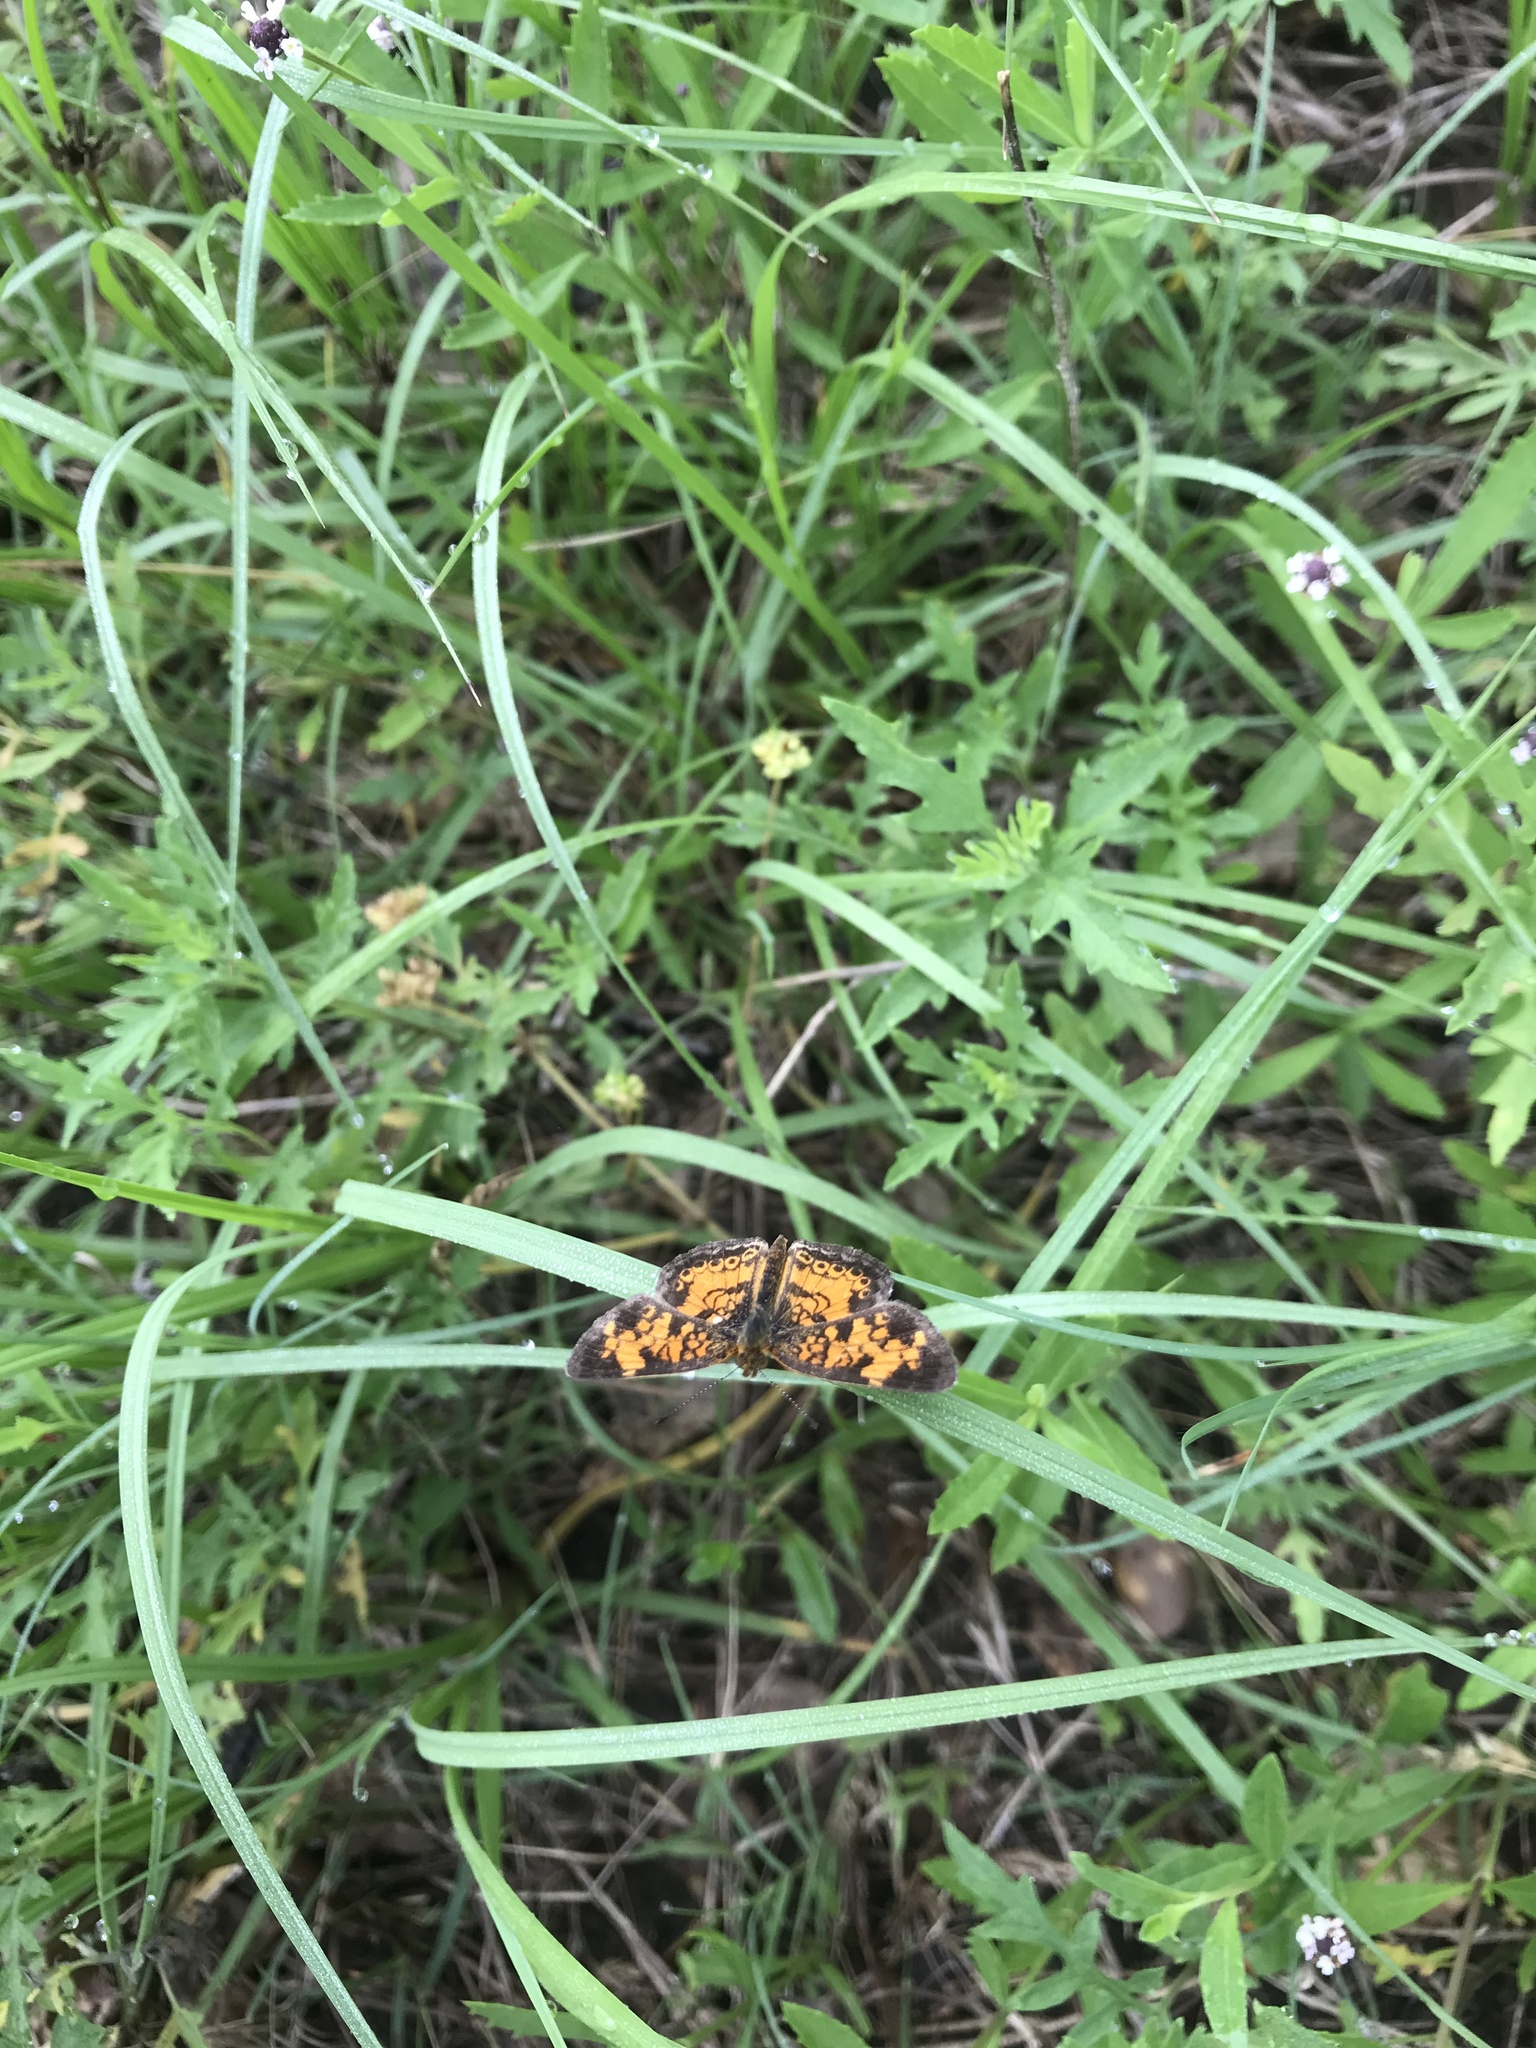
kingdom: Animalia
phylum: Arthropoda
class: Insecta
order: Lepidoptera
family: Nymphalidae
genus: Phyciodes
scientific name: Phyciodes tharos
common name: Pearl crescent
